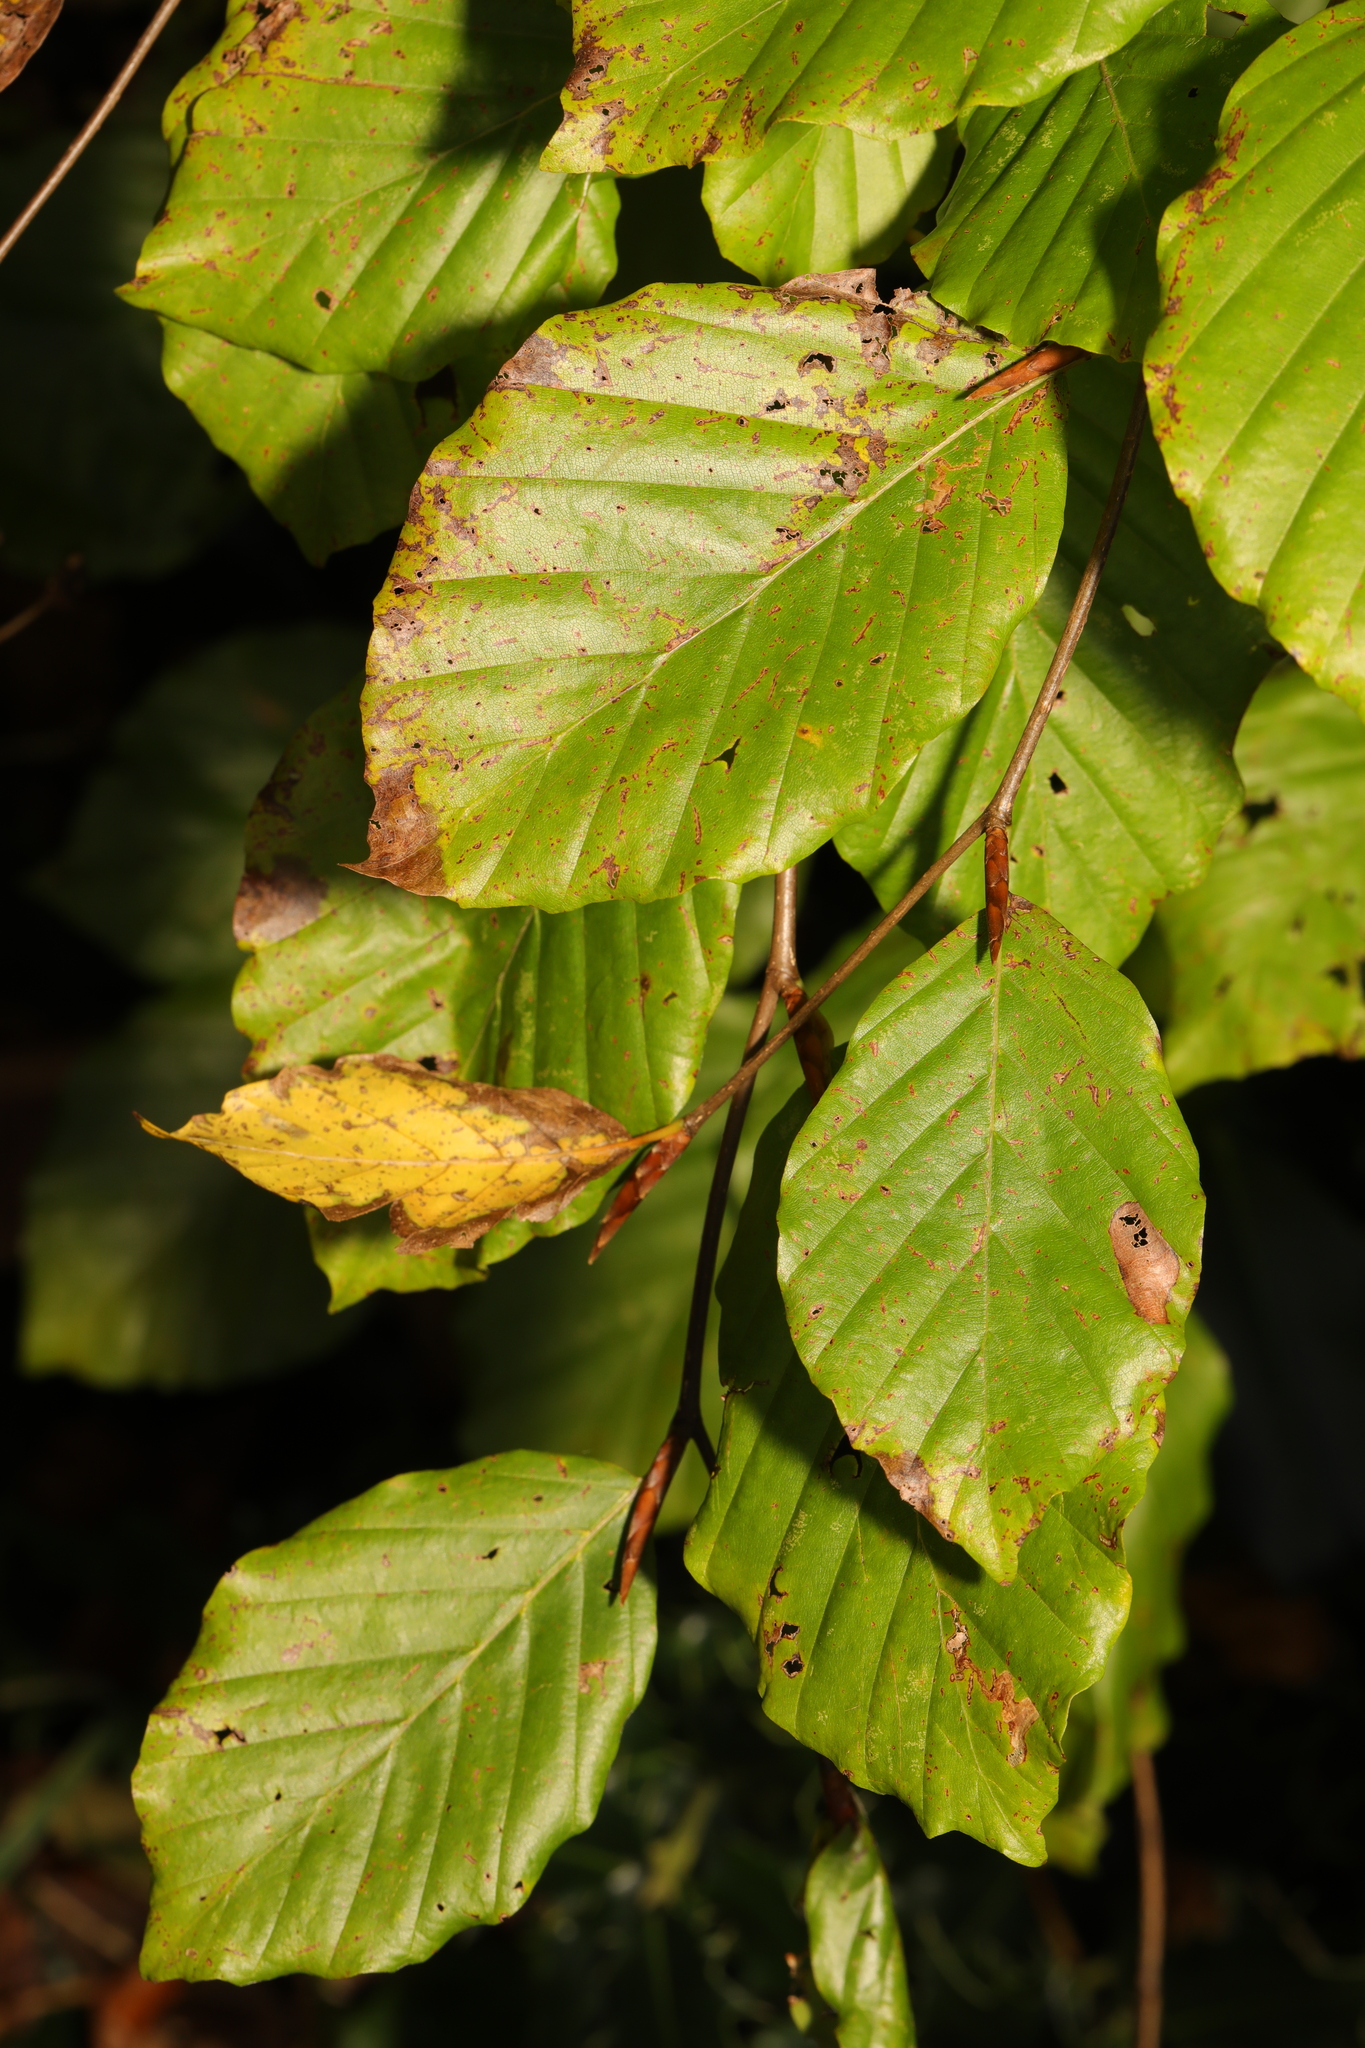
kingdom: Plantae
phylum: Tracheophyta
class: Magnoliopsida
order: Fagales
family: Fagaceae
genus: Fagus
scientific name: Fagus sylvatica
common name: Beech
